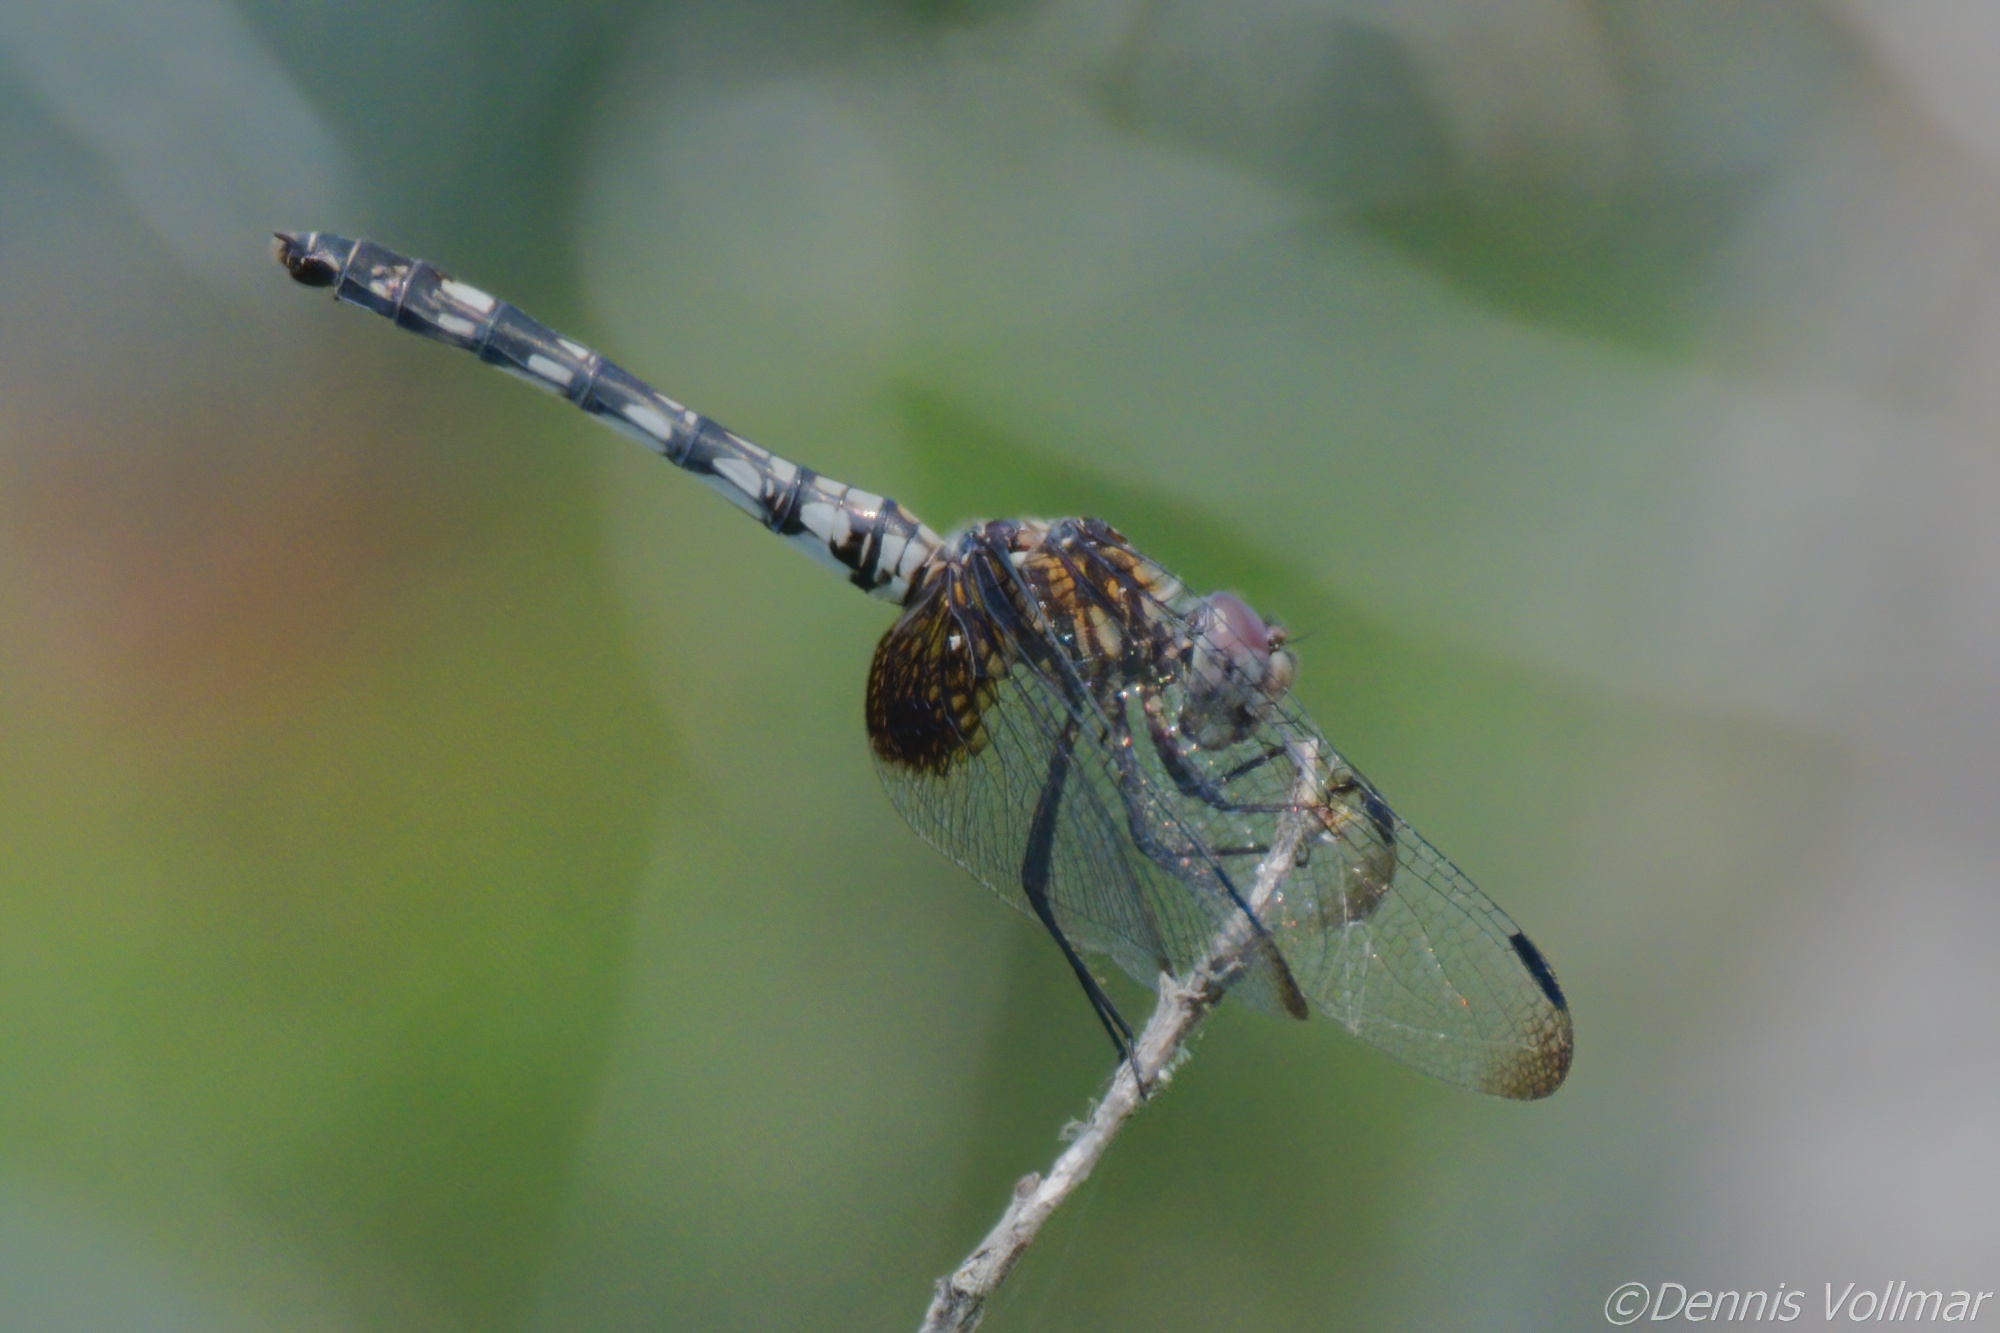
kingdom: Animalia
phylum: Arthropoda
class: Insecta
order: Odonata
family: Libellulidae
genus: Dythemis
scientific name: Dythemis fugax
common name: Checkered setwing
